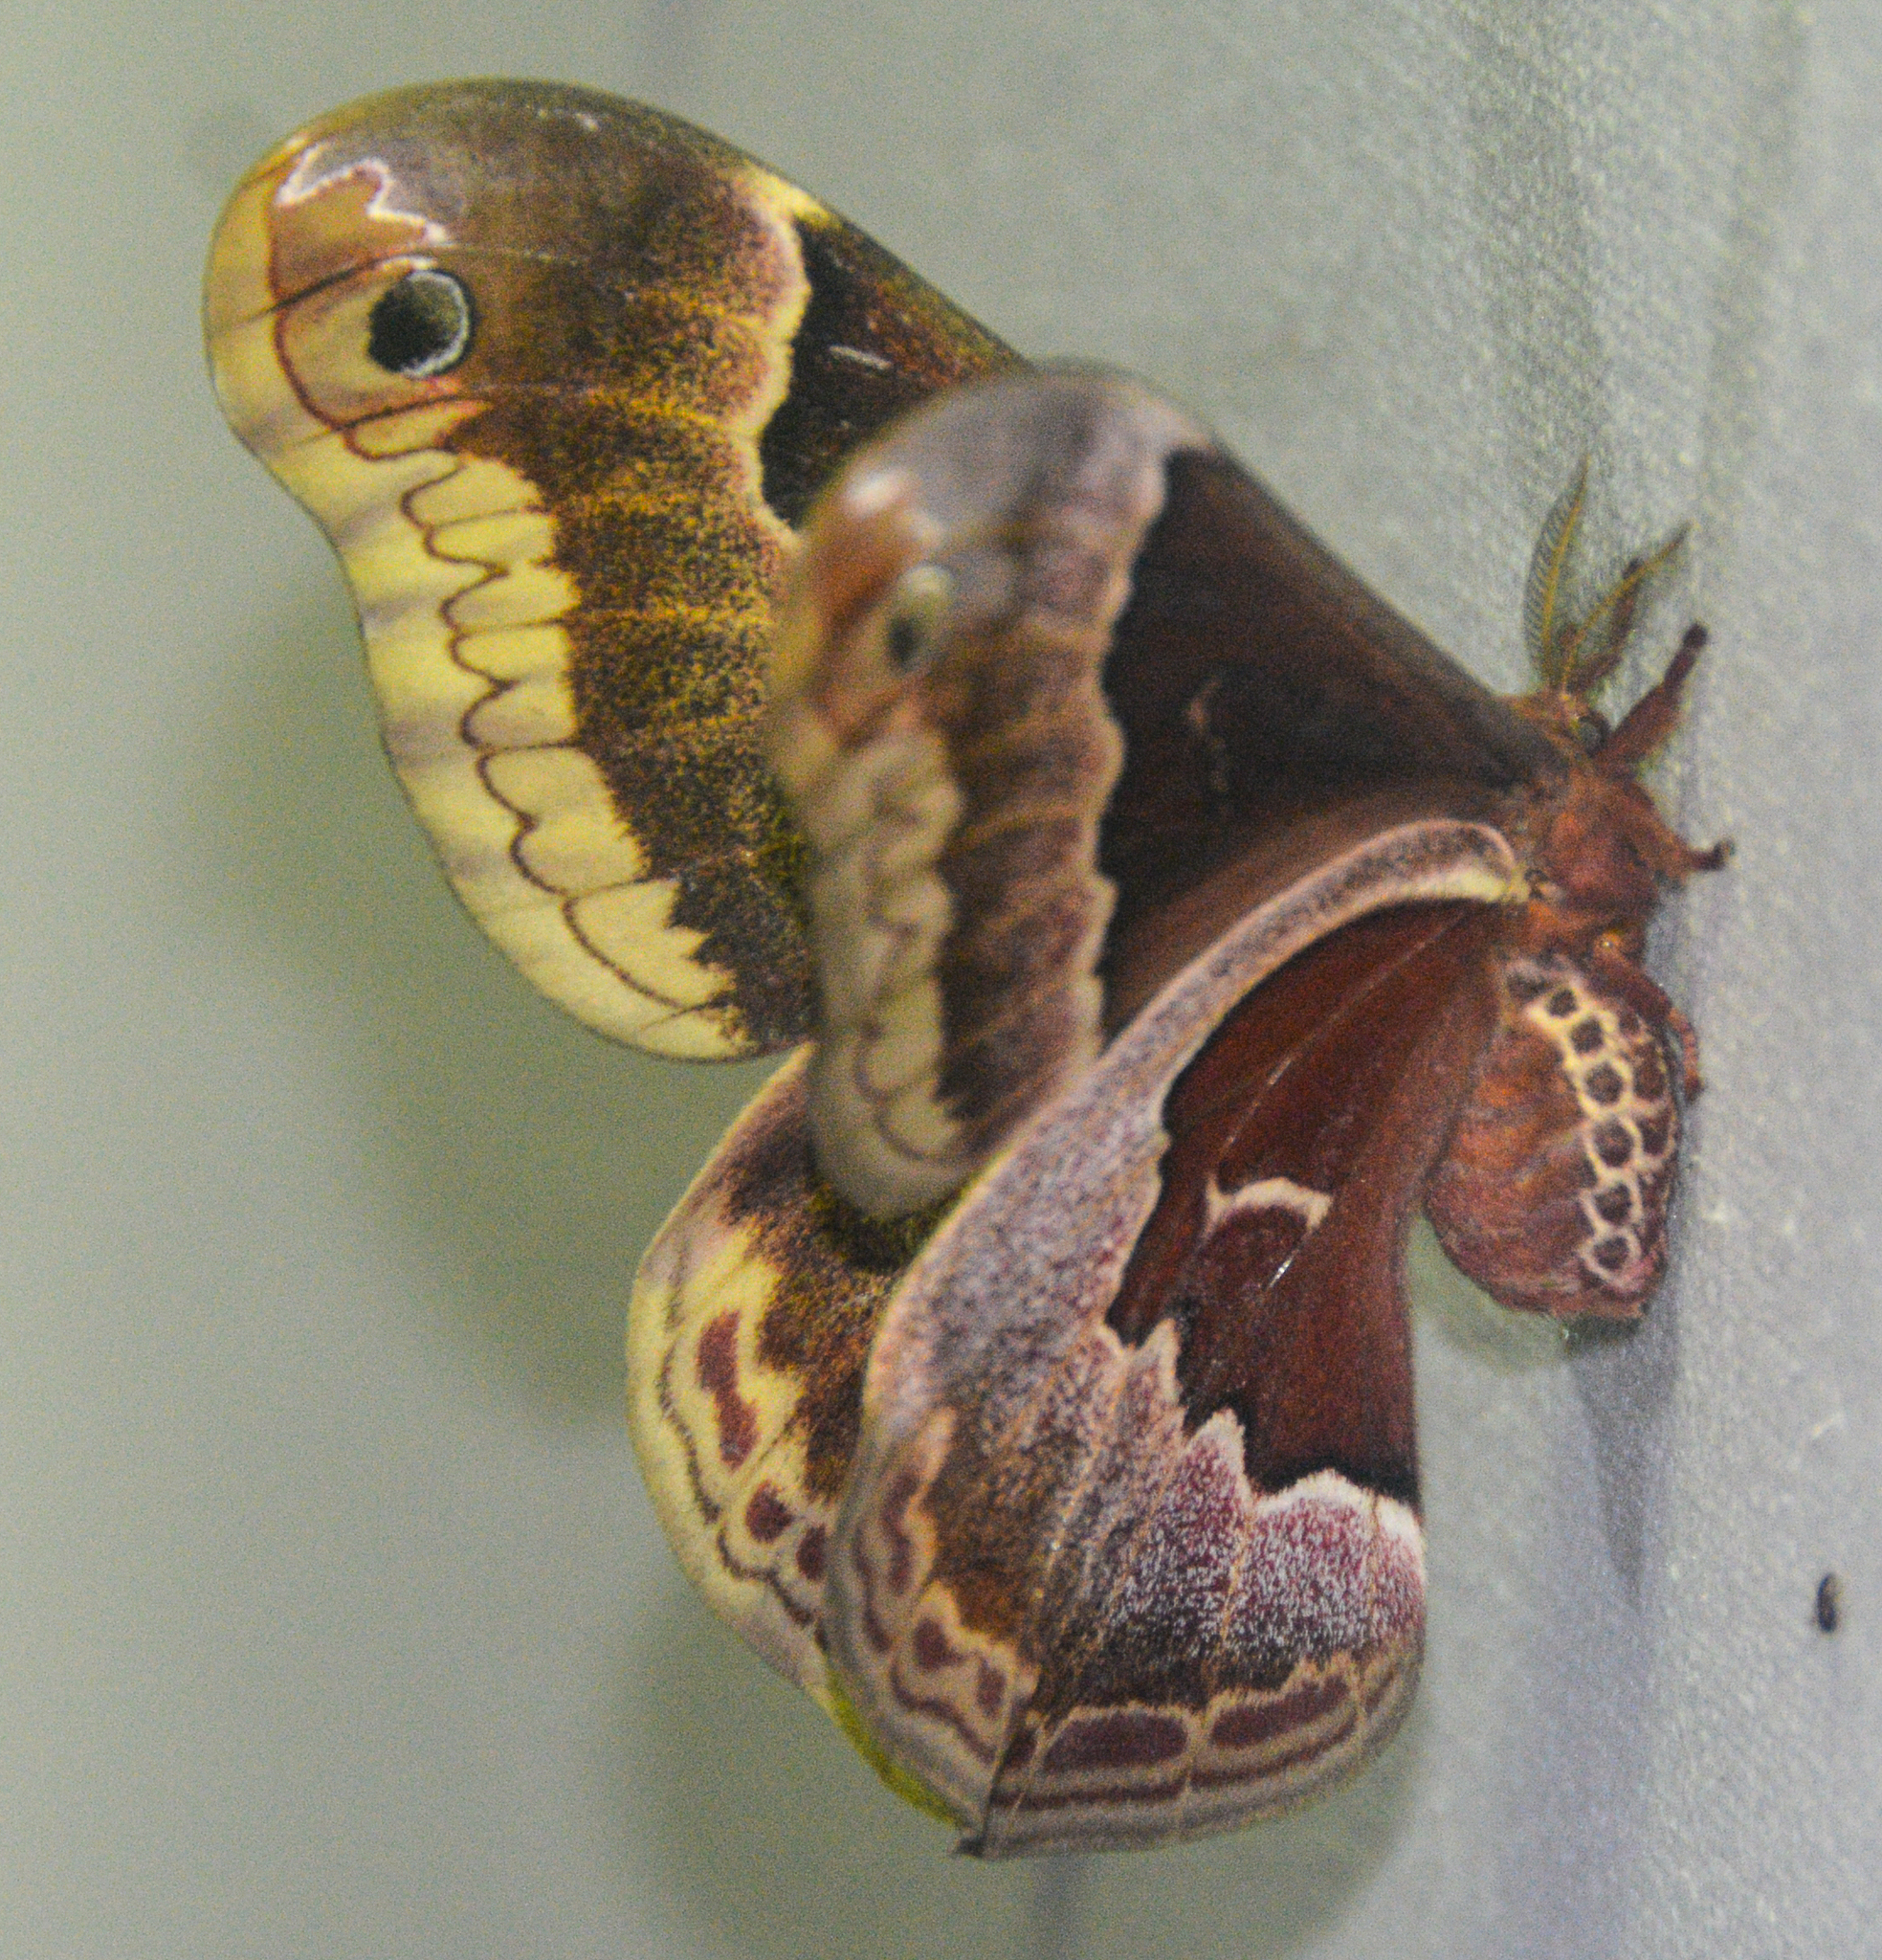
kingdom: Animalia
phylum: Arthropoda
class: Insecta
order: Lepidoptera
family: Saturniidae
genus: Callosamia
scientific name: Callosamia promethea
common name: Promethea silkmoth
